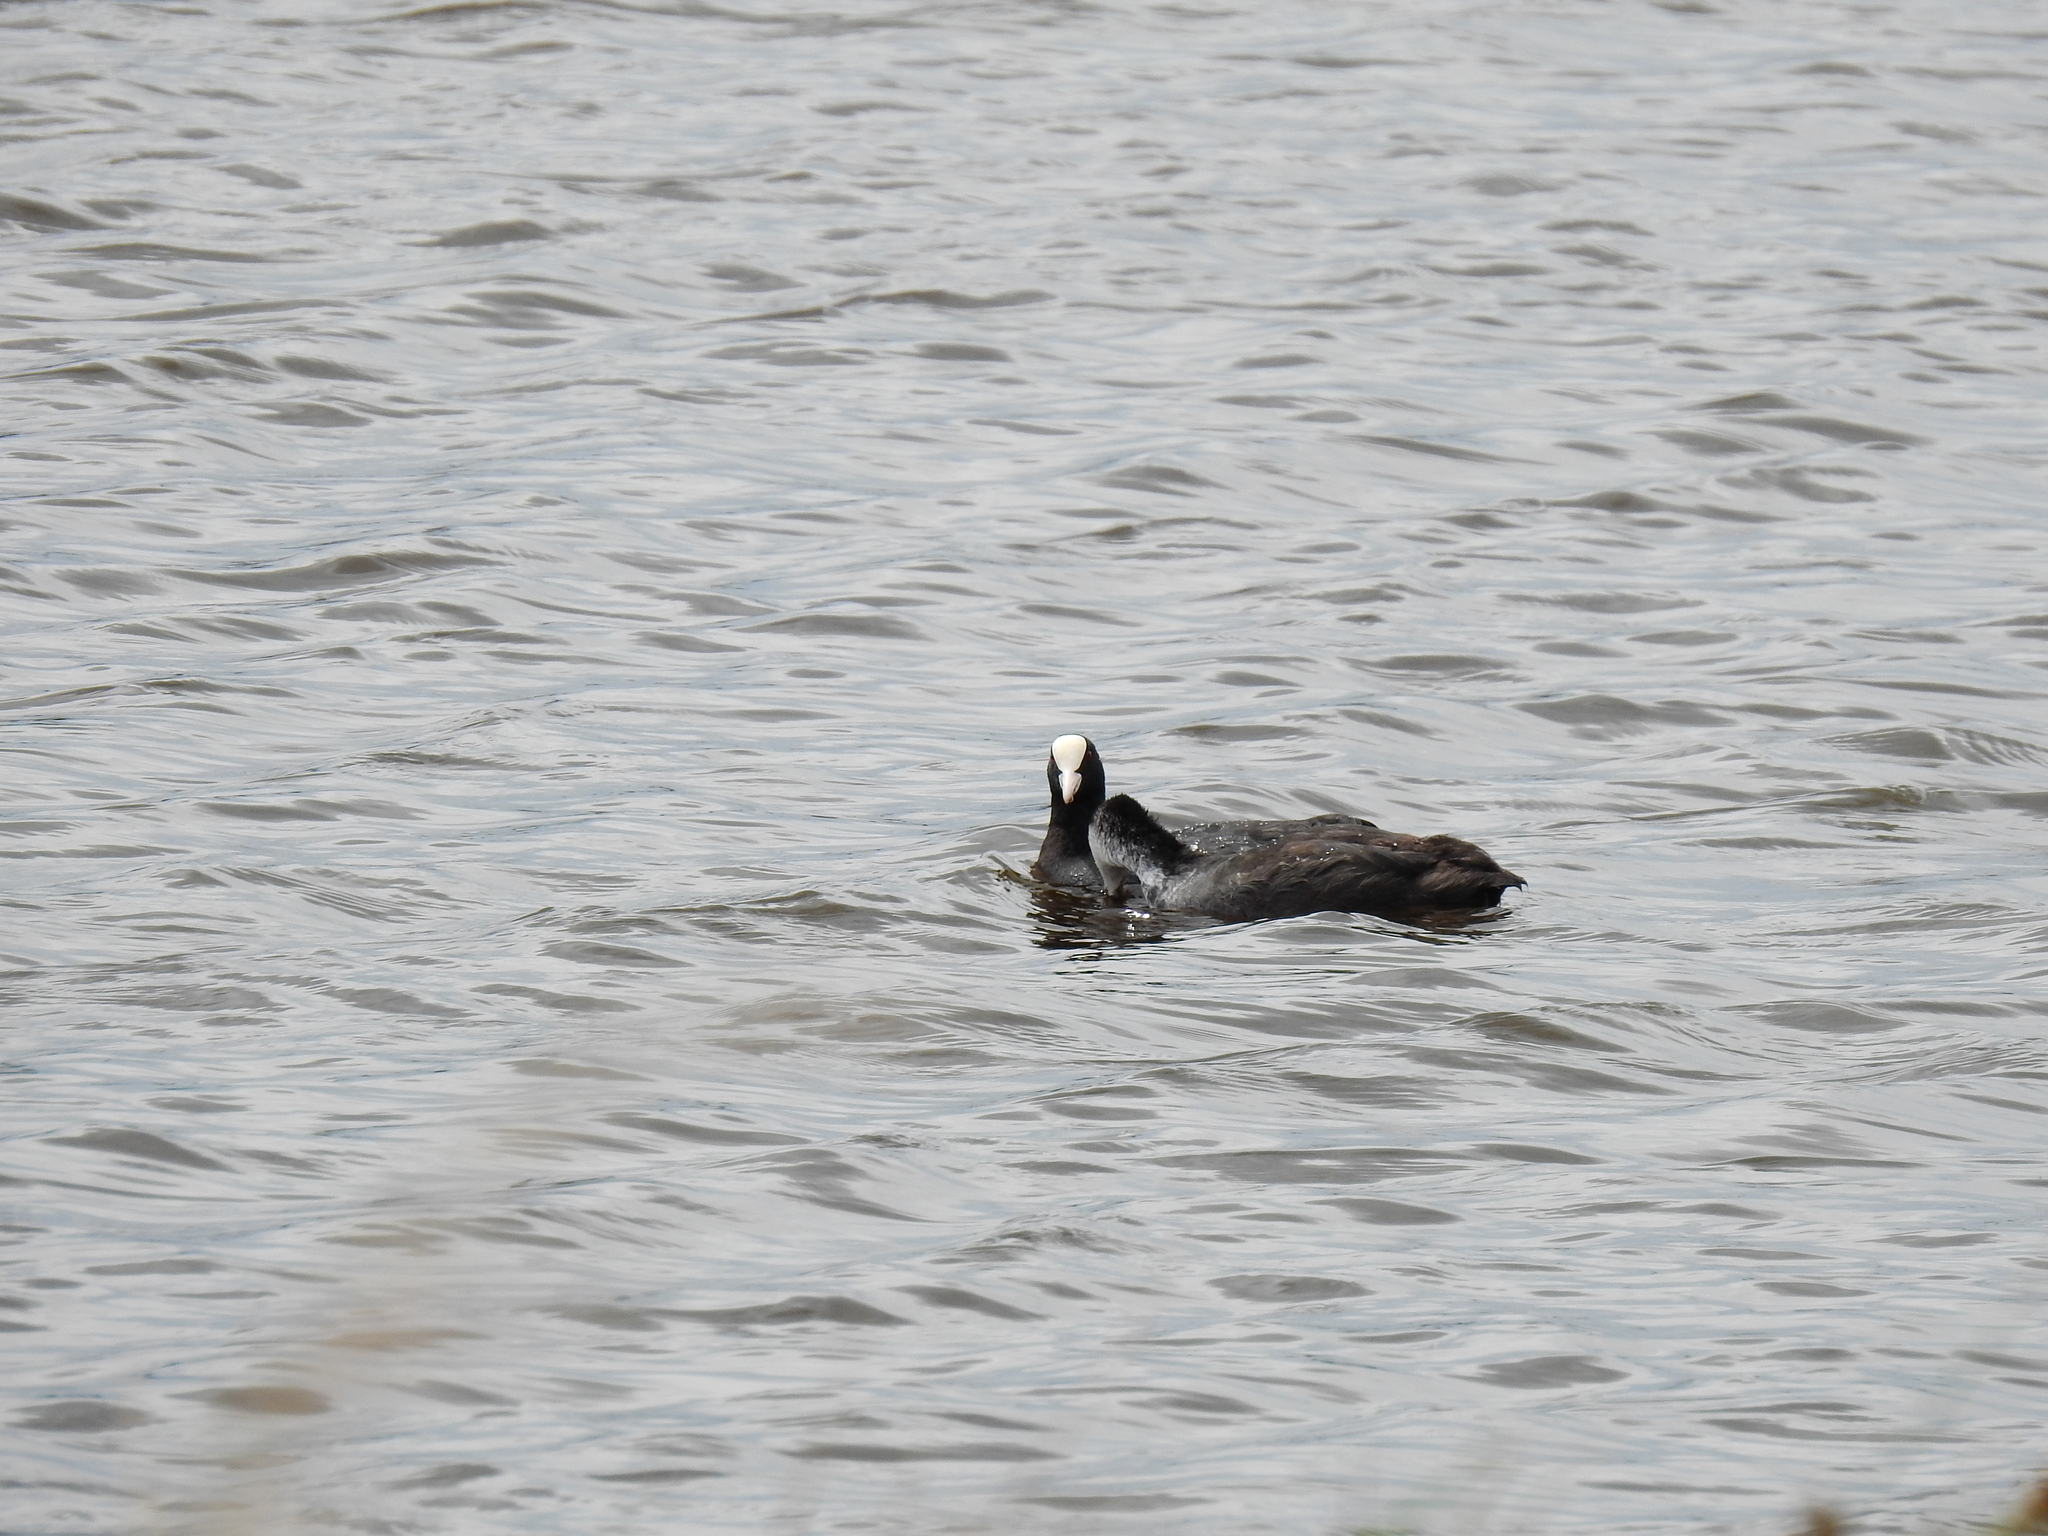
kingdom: Animalia
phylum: Chordata
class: Aves
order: Gruiformes
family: Rallidae
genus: Fulica
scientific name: Fulica atra
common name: Eurasian coot
